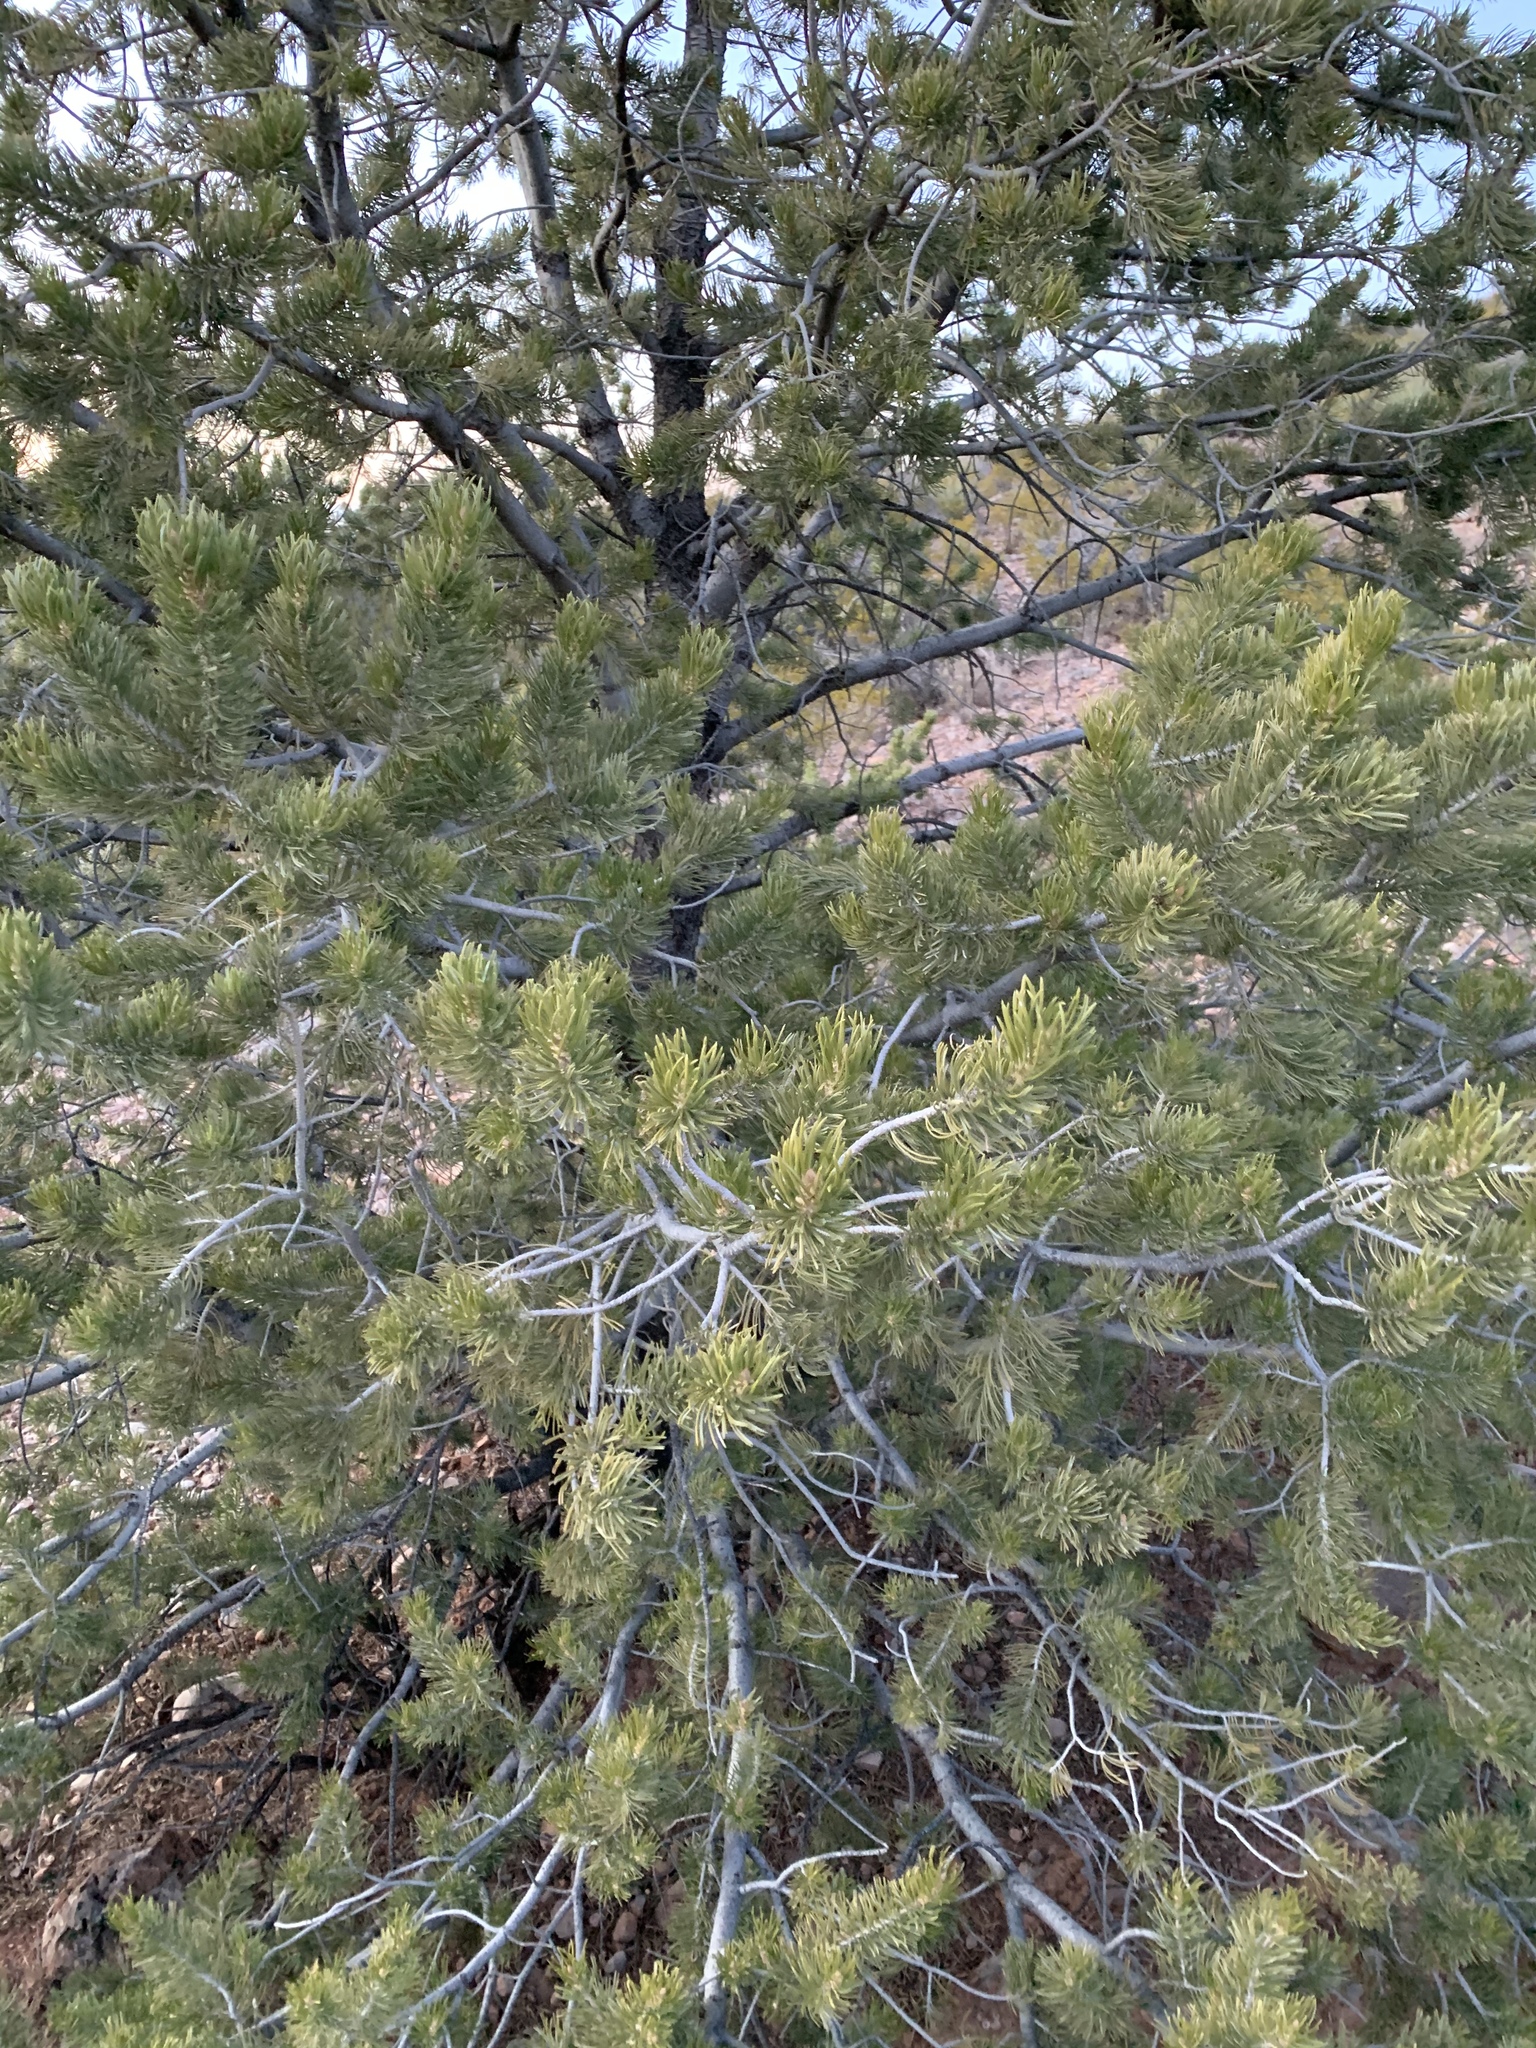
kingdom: Plantae
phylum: Tracheophyta
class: Pinopsida
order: Pinales
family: Pinaceae
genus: Pinus
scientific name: Pinus edulis
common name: Colorado pinyon
